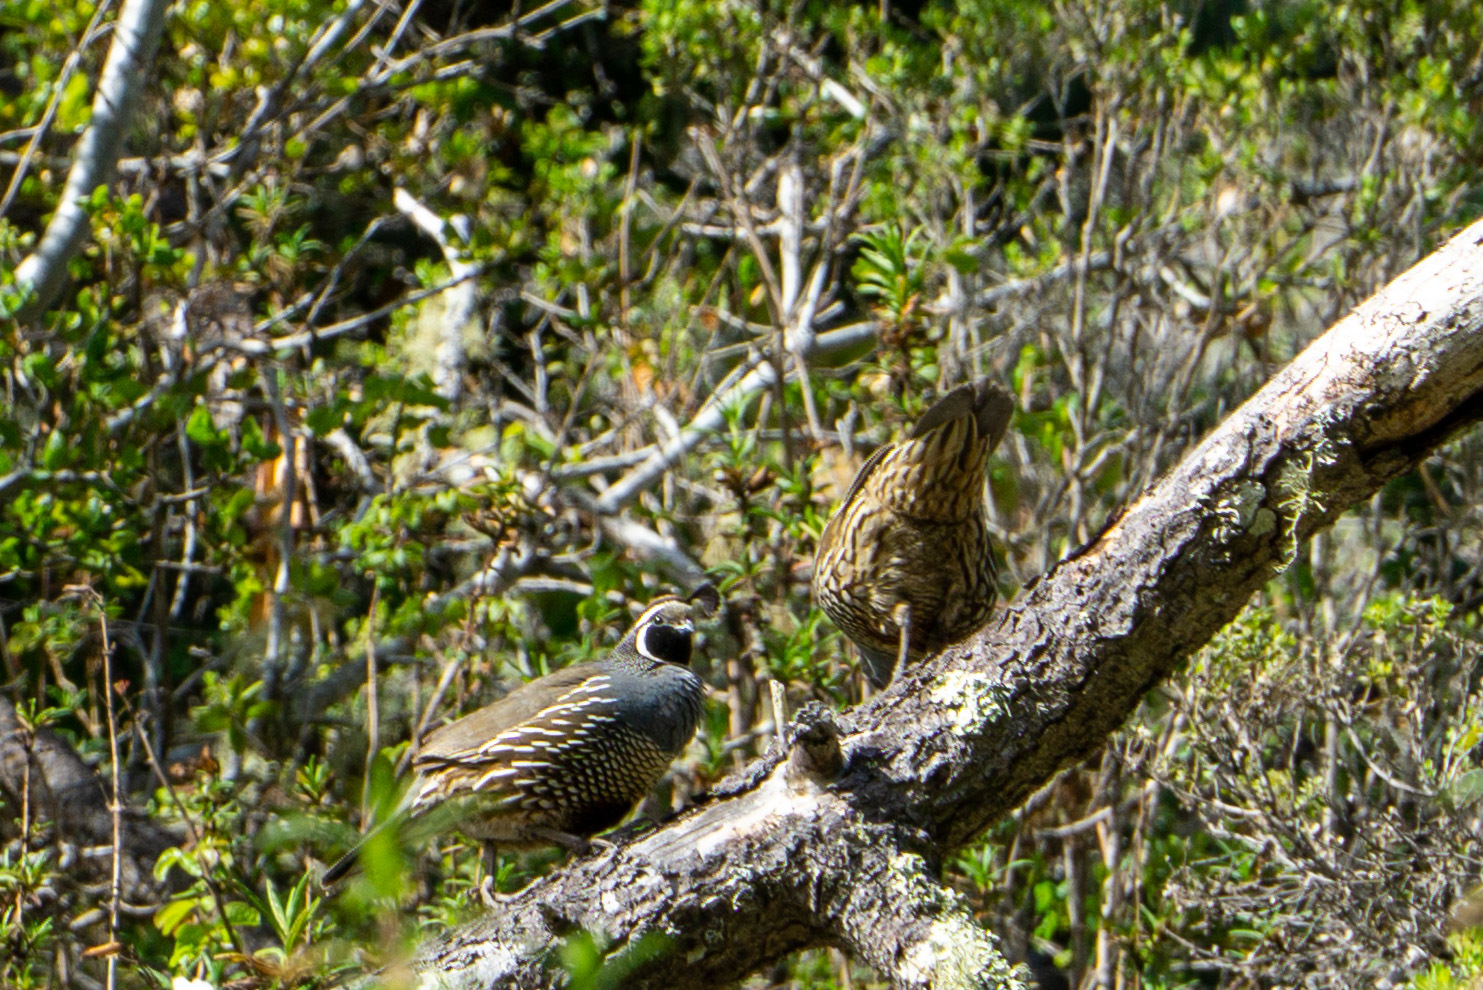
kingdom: Animalia
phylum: Chordata
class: Aves
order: Galliformes
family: Odontophoridae
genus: Callipepla
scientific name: Callipepla californica
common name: California quail
